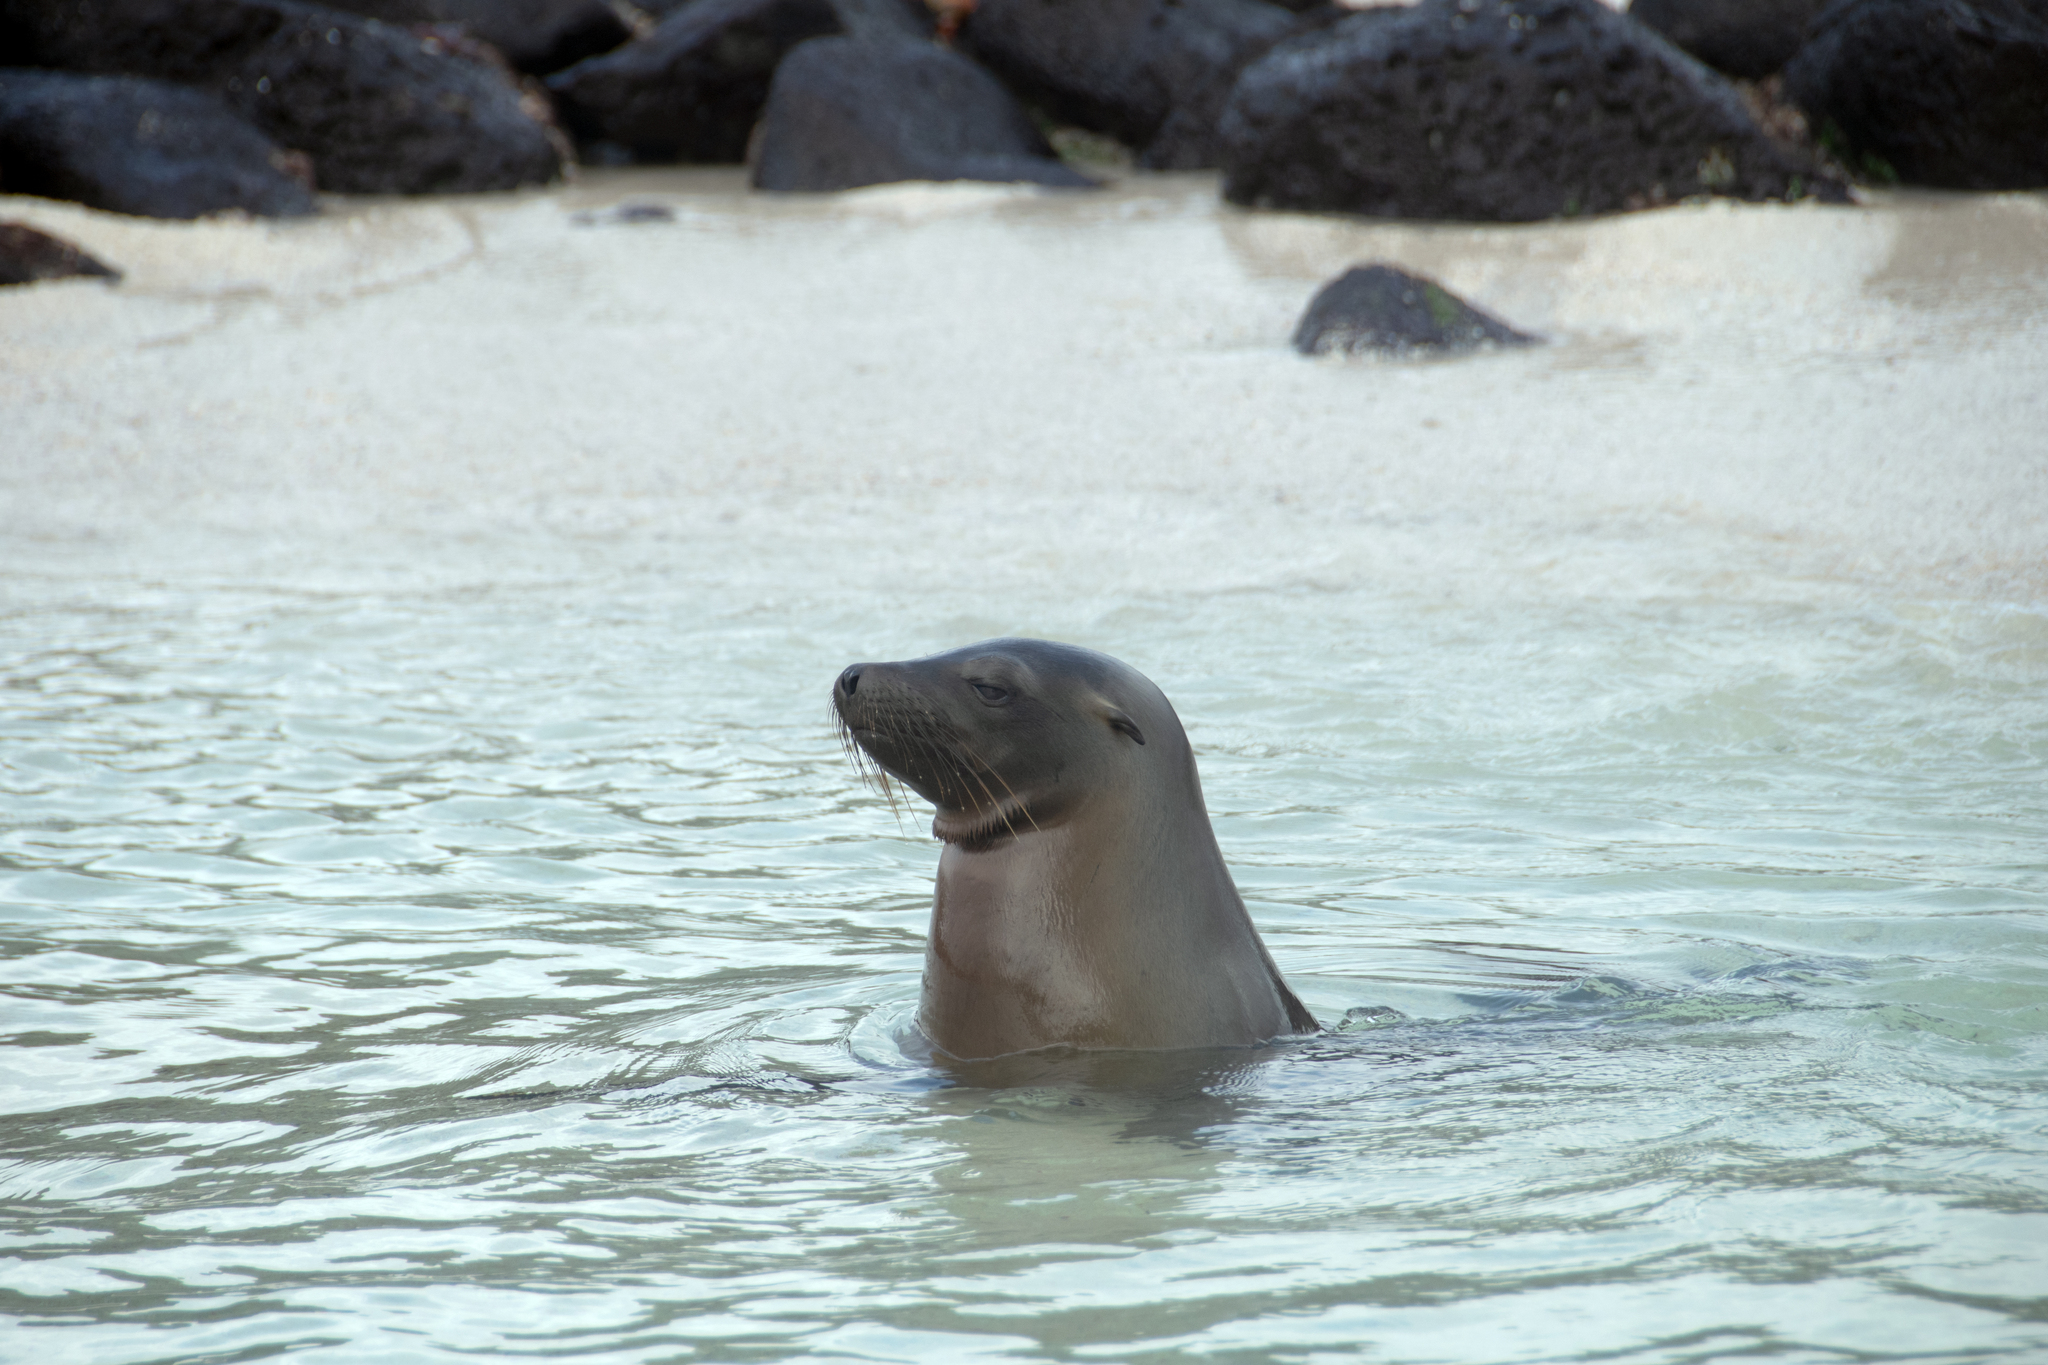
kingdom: Animalia
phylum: Chordata
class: Mammalia
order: Carnivora
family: Otariidae
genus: Zalophus
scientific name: Zalophus wollebaeki
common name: Galapagos sea lion
